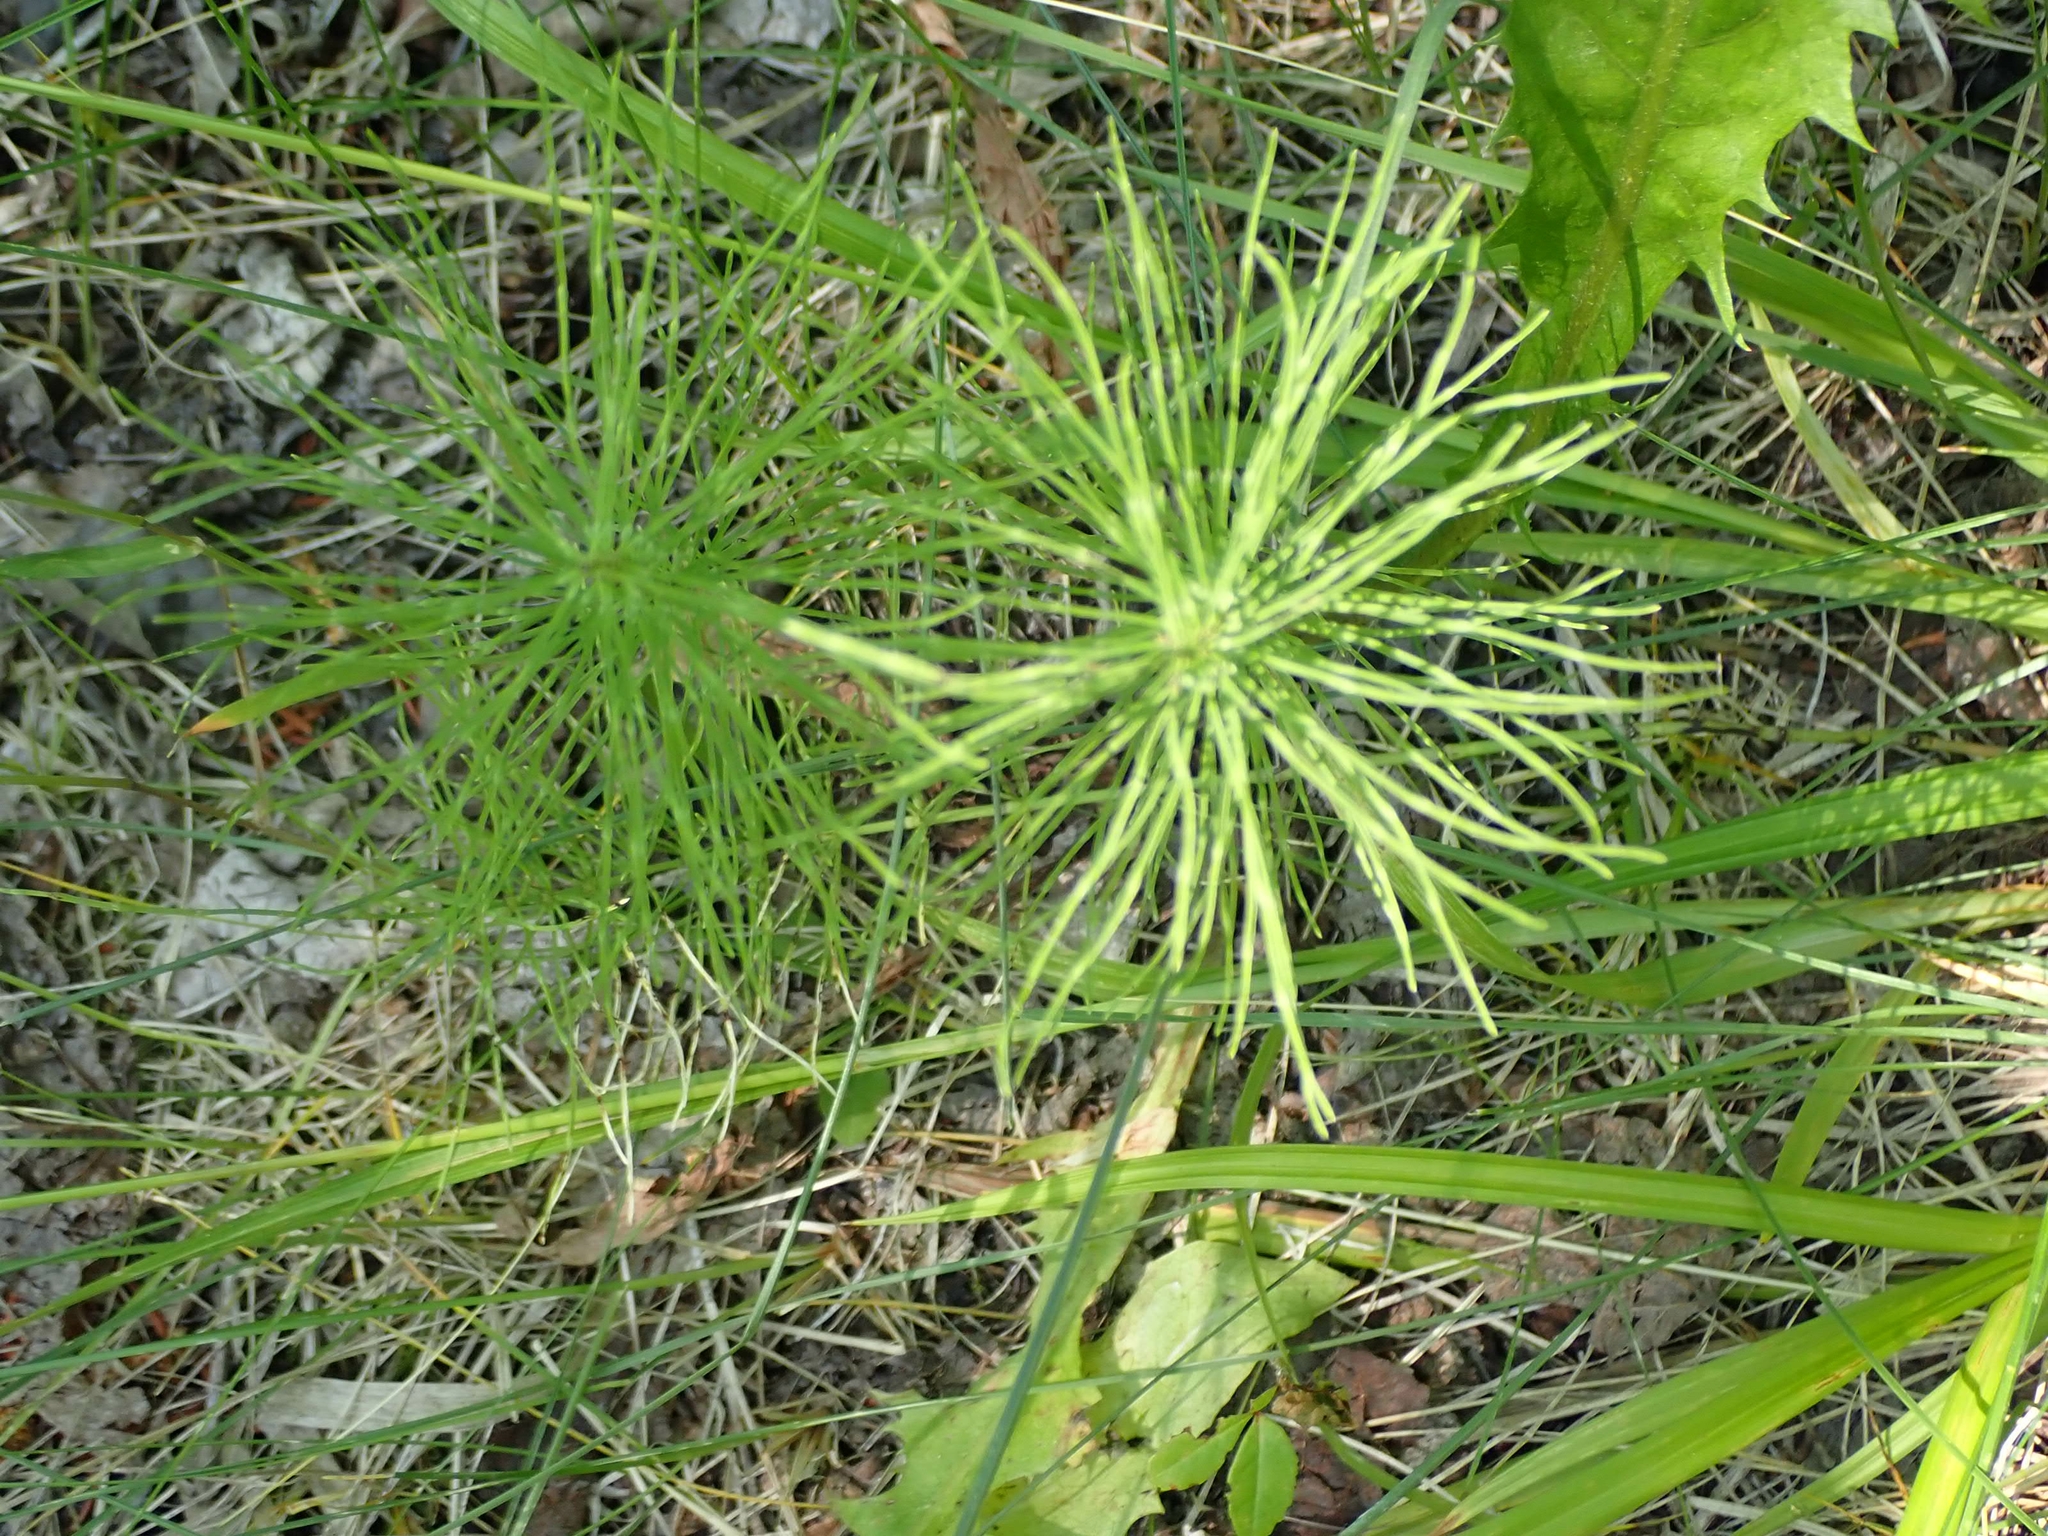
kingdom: Plantae
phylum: Tracheophyta
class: Polypodiopsida
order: Equisetales
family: Equisetaceae
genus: Equisetum
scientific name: Equisetum arvense
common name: Field horsetail
